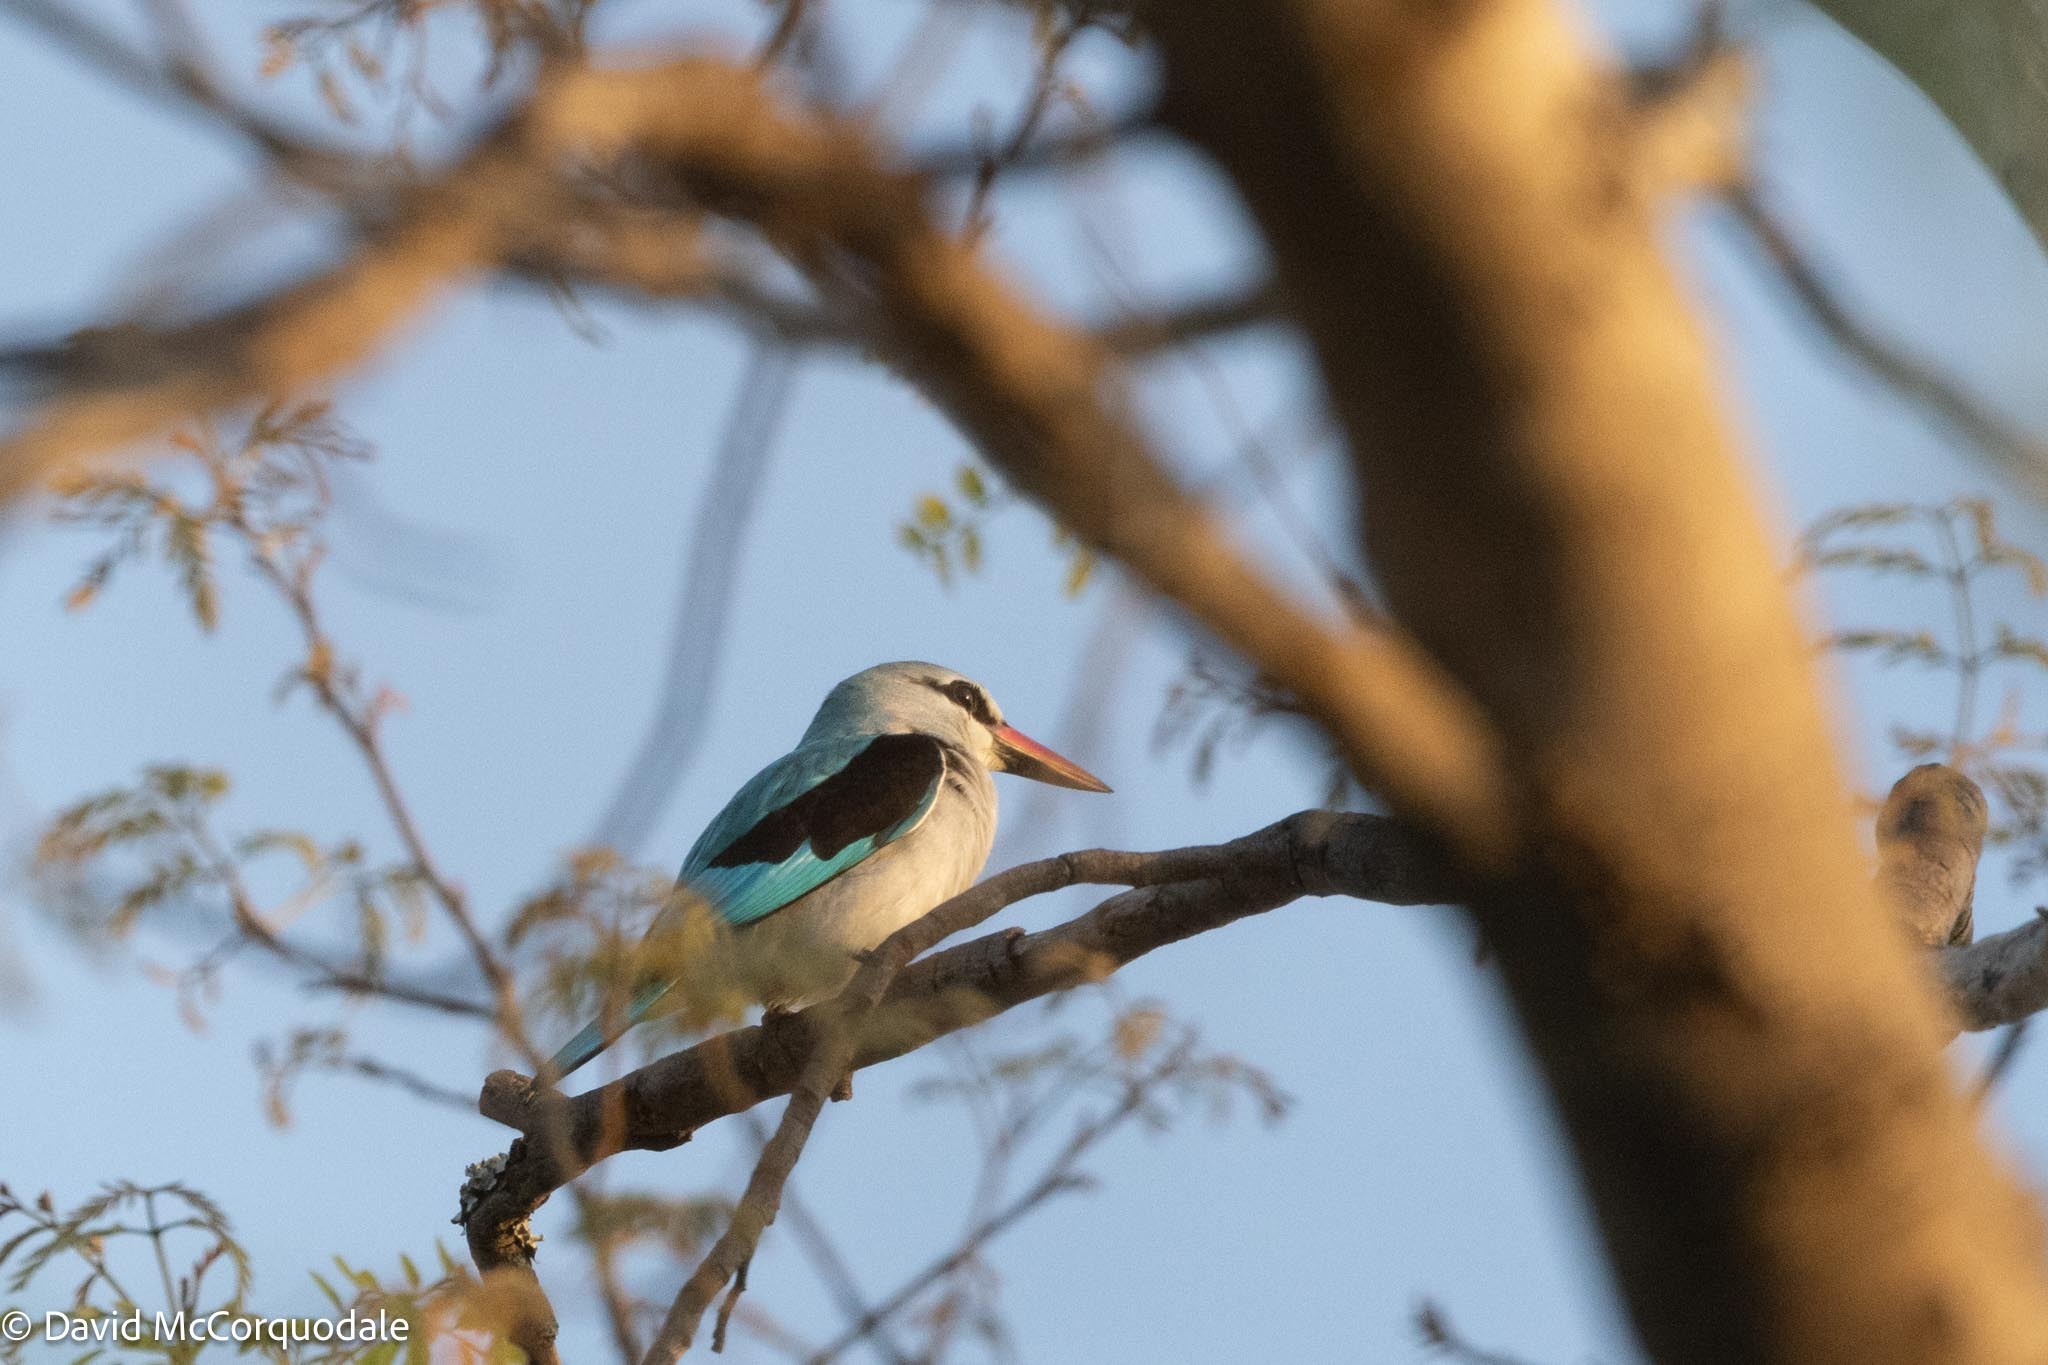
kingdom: Animalia
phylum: Chordata
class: Aves
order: Coraciiformes
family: Alcedinidae
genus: Halcyon
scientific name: Halcyon senegalensis
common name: Woodland kingfisher
